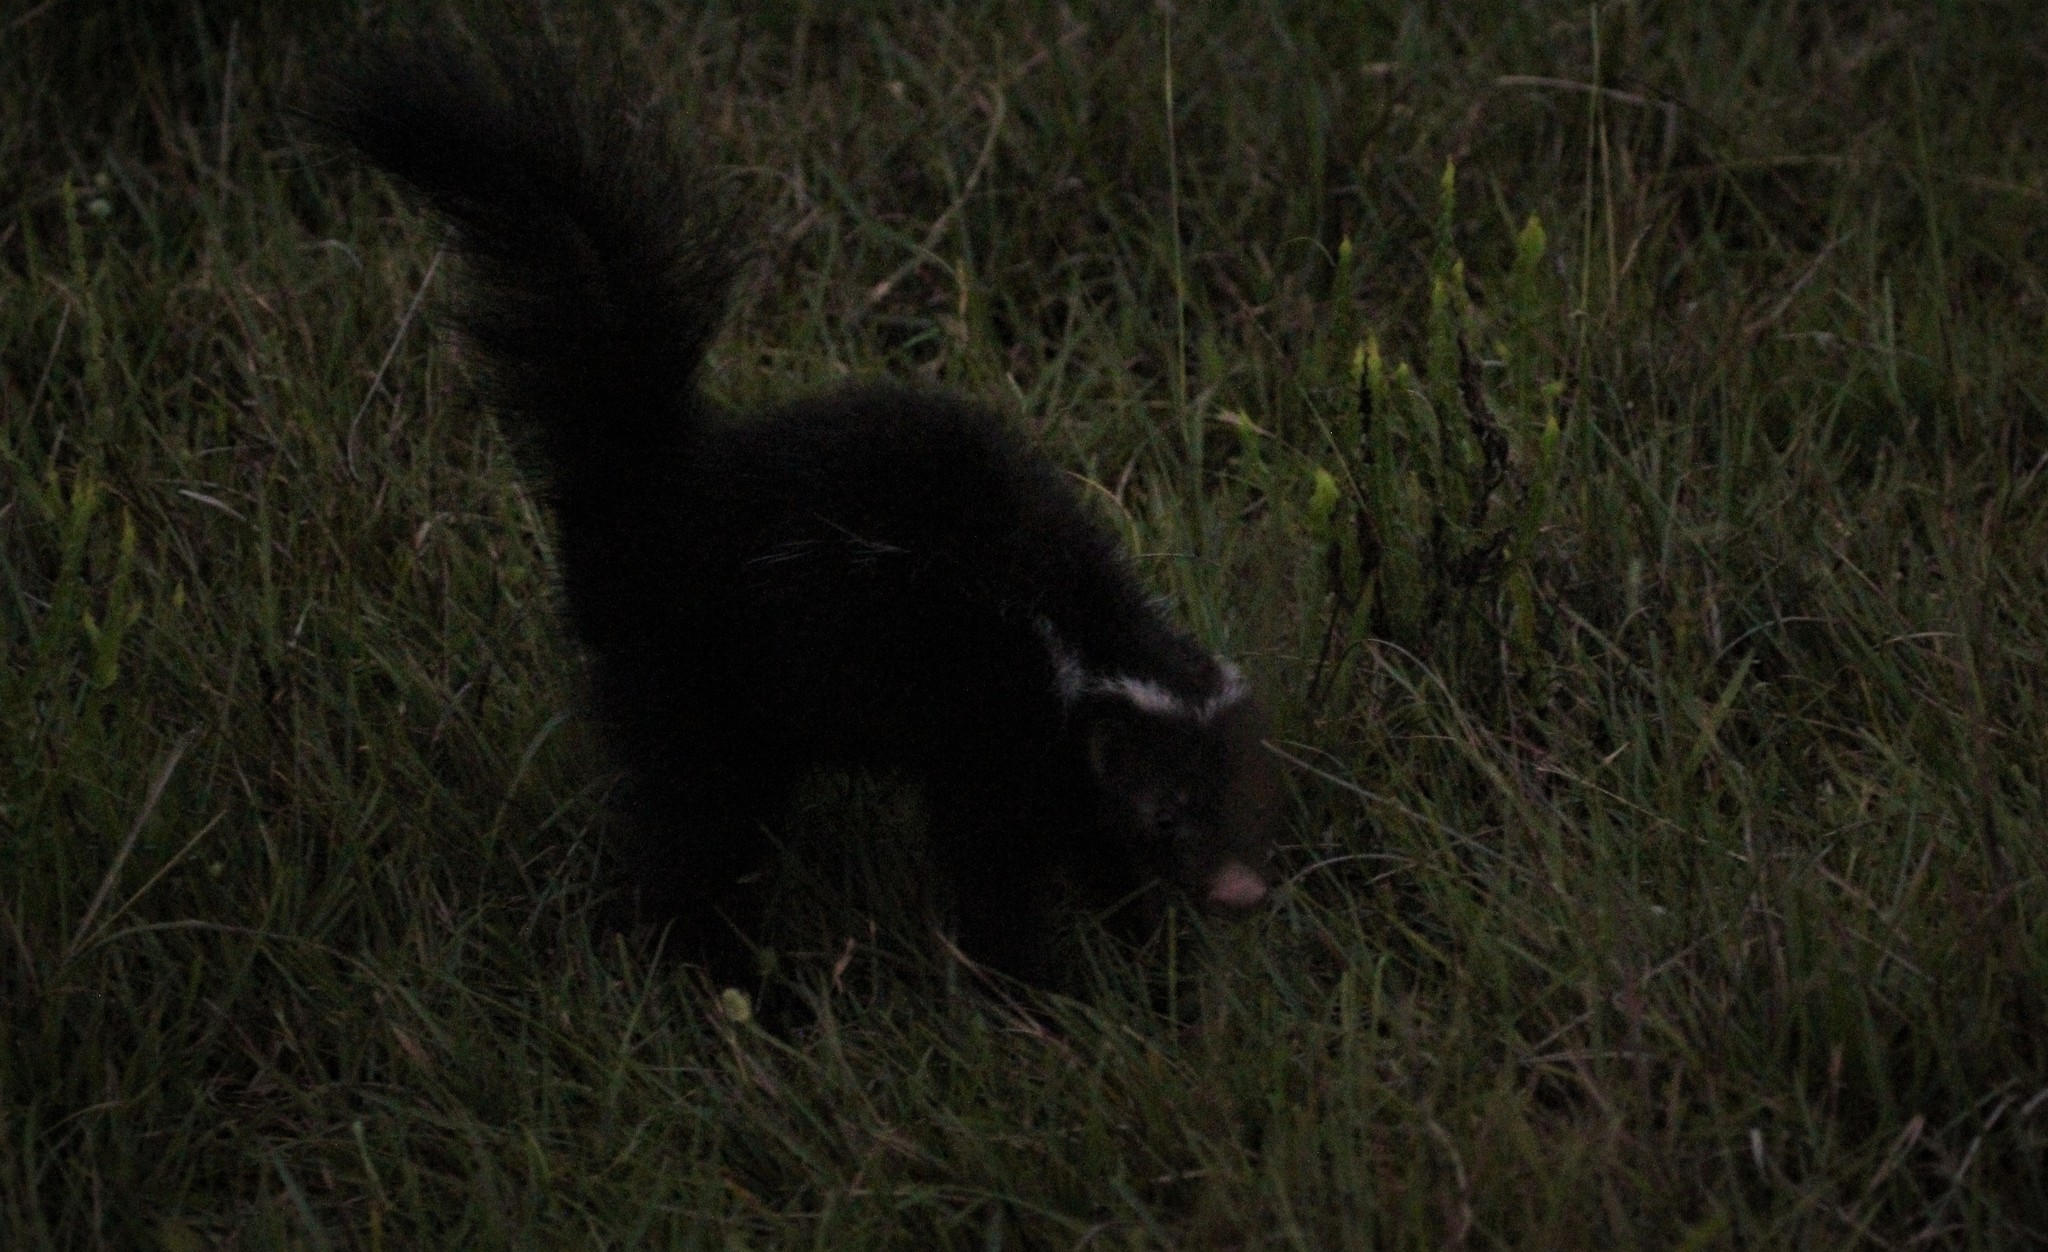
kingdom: Animalia
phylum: Chordata
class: Mammalia
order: Carnivora
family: Mephitidae
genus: Conepatus
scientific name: Conepatus chinga
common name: Molina's hog-nosed skunk
